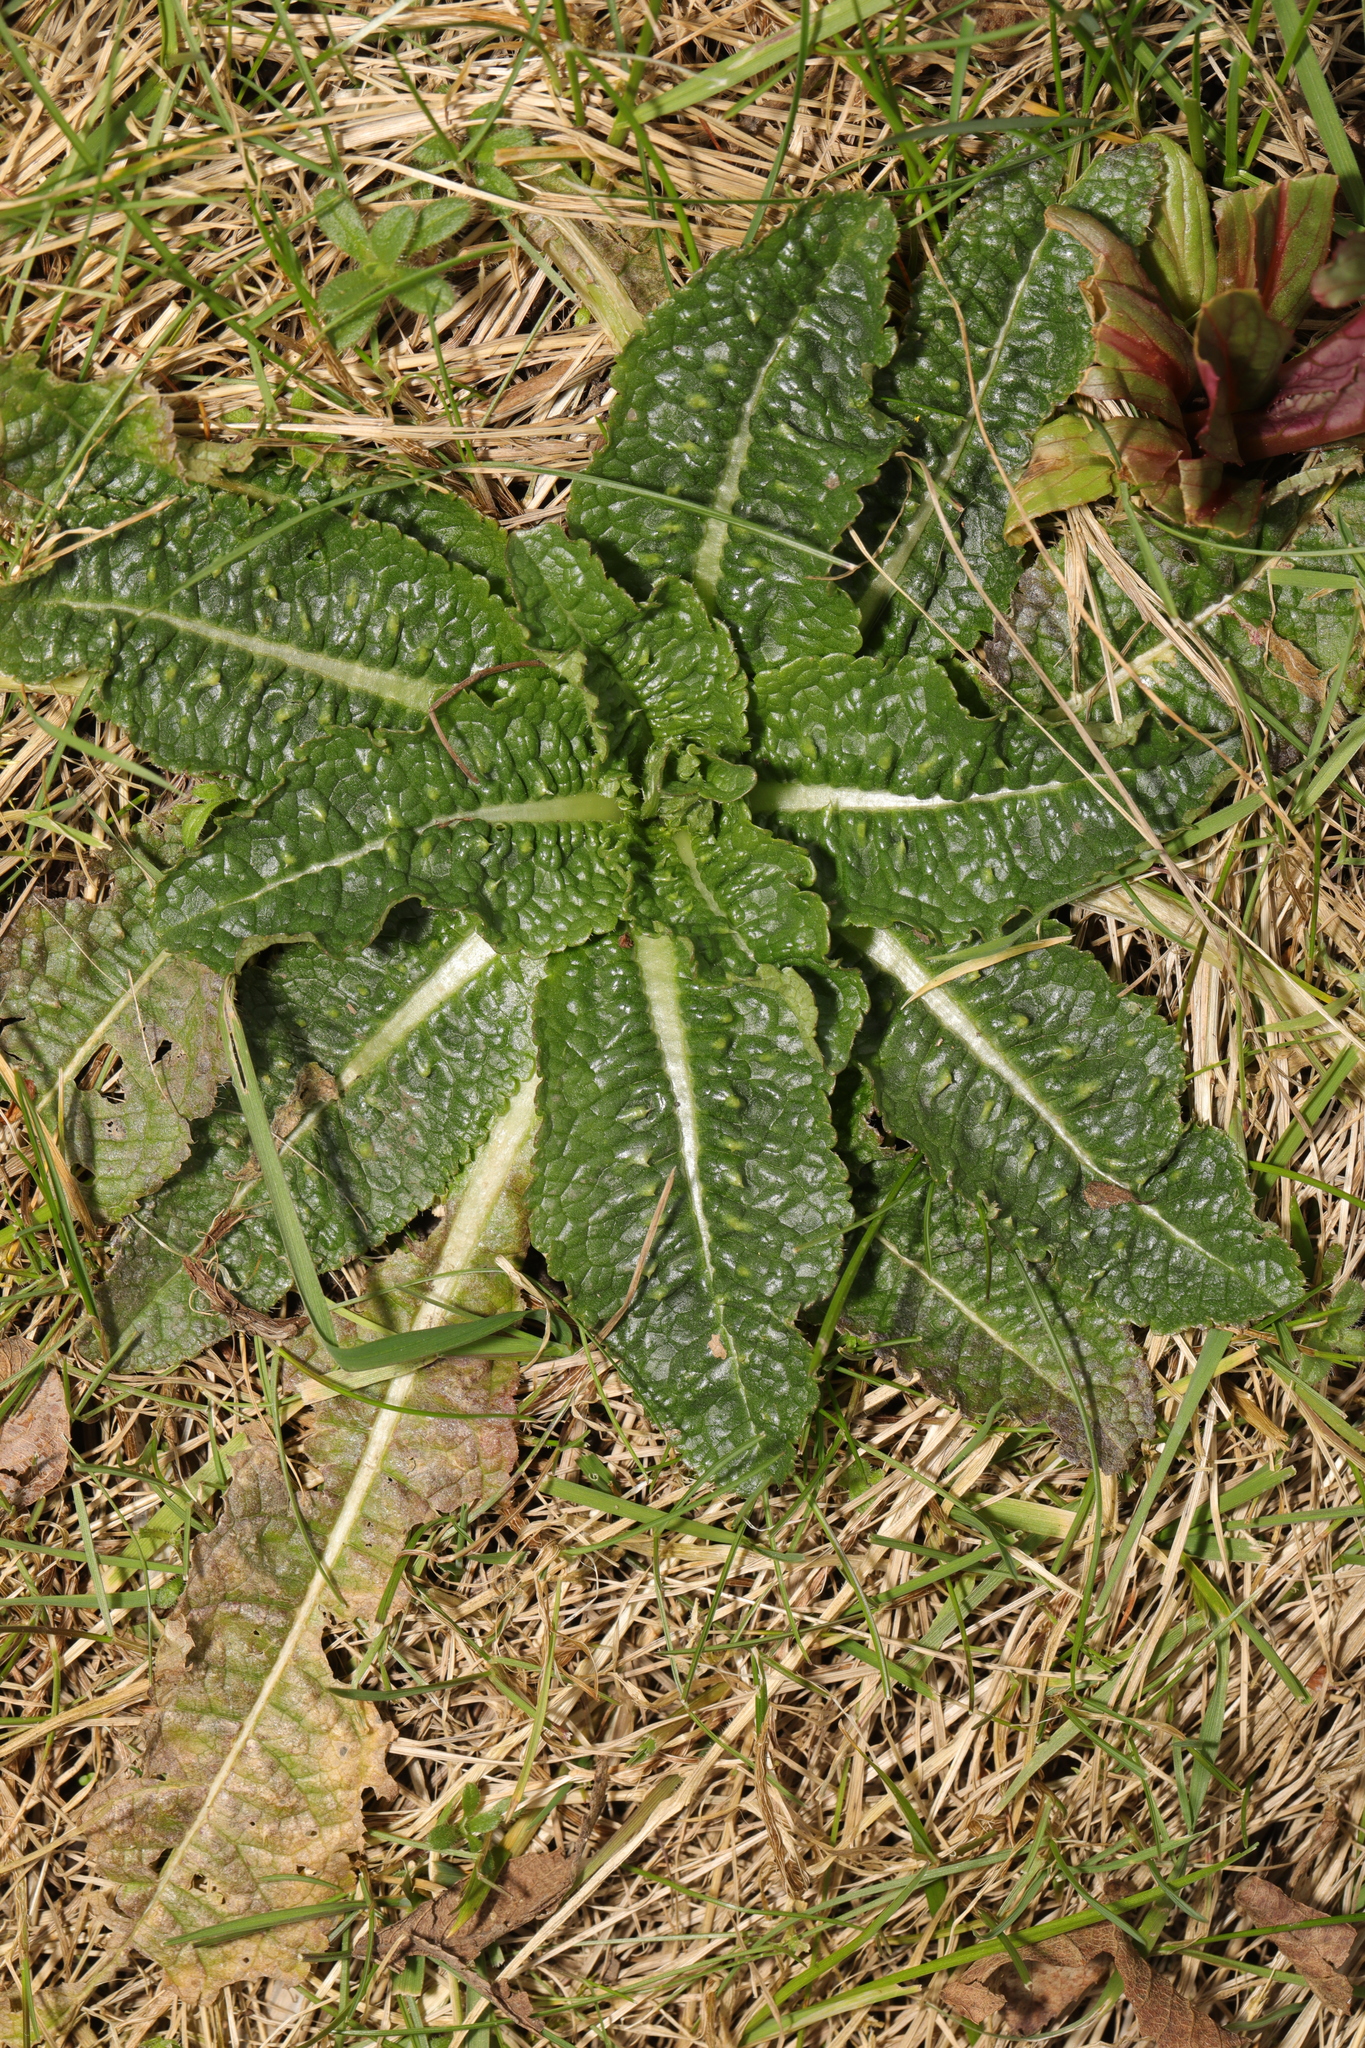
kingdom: Plantae
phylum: Tracheophyta
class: Magnoliopsida
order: Dipsacales
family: Caprifoliaceae
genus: Dipsacus
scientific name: Dipsacus fullonum
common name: Teasel
